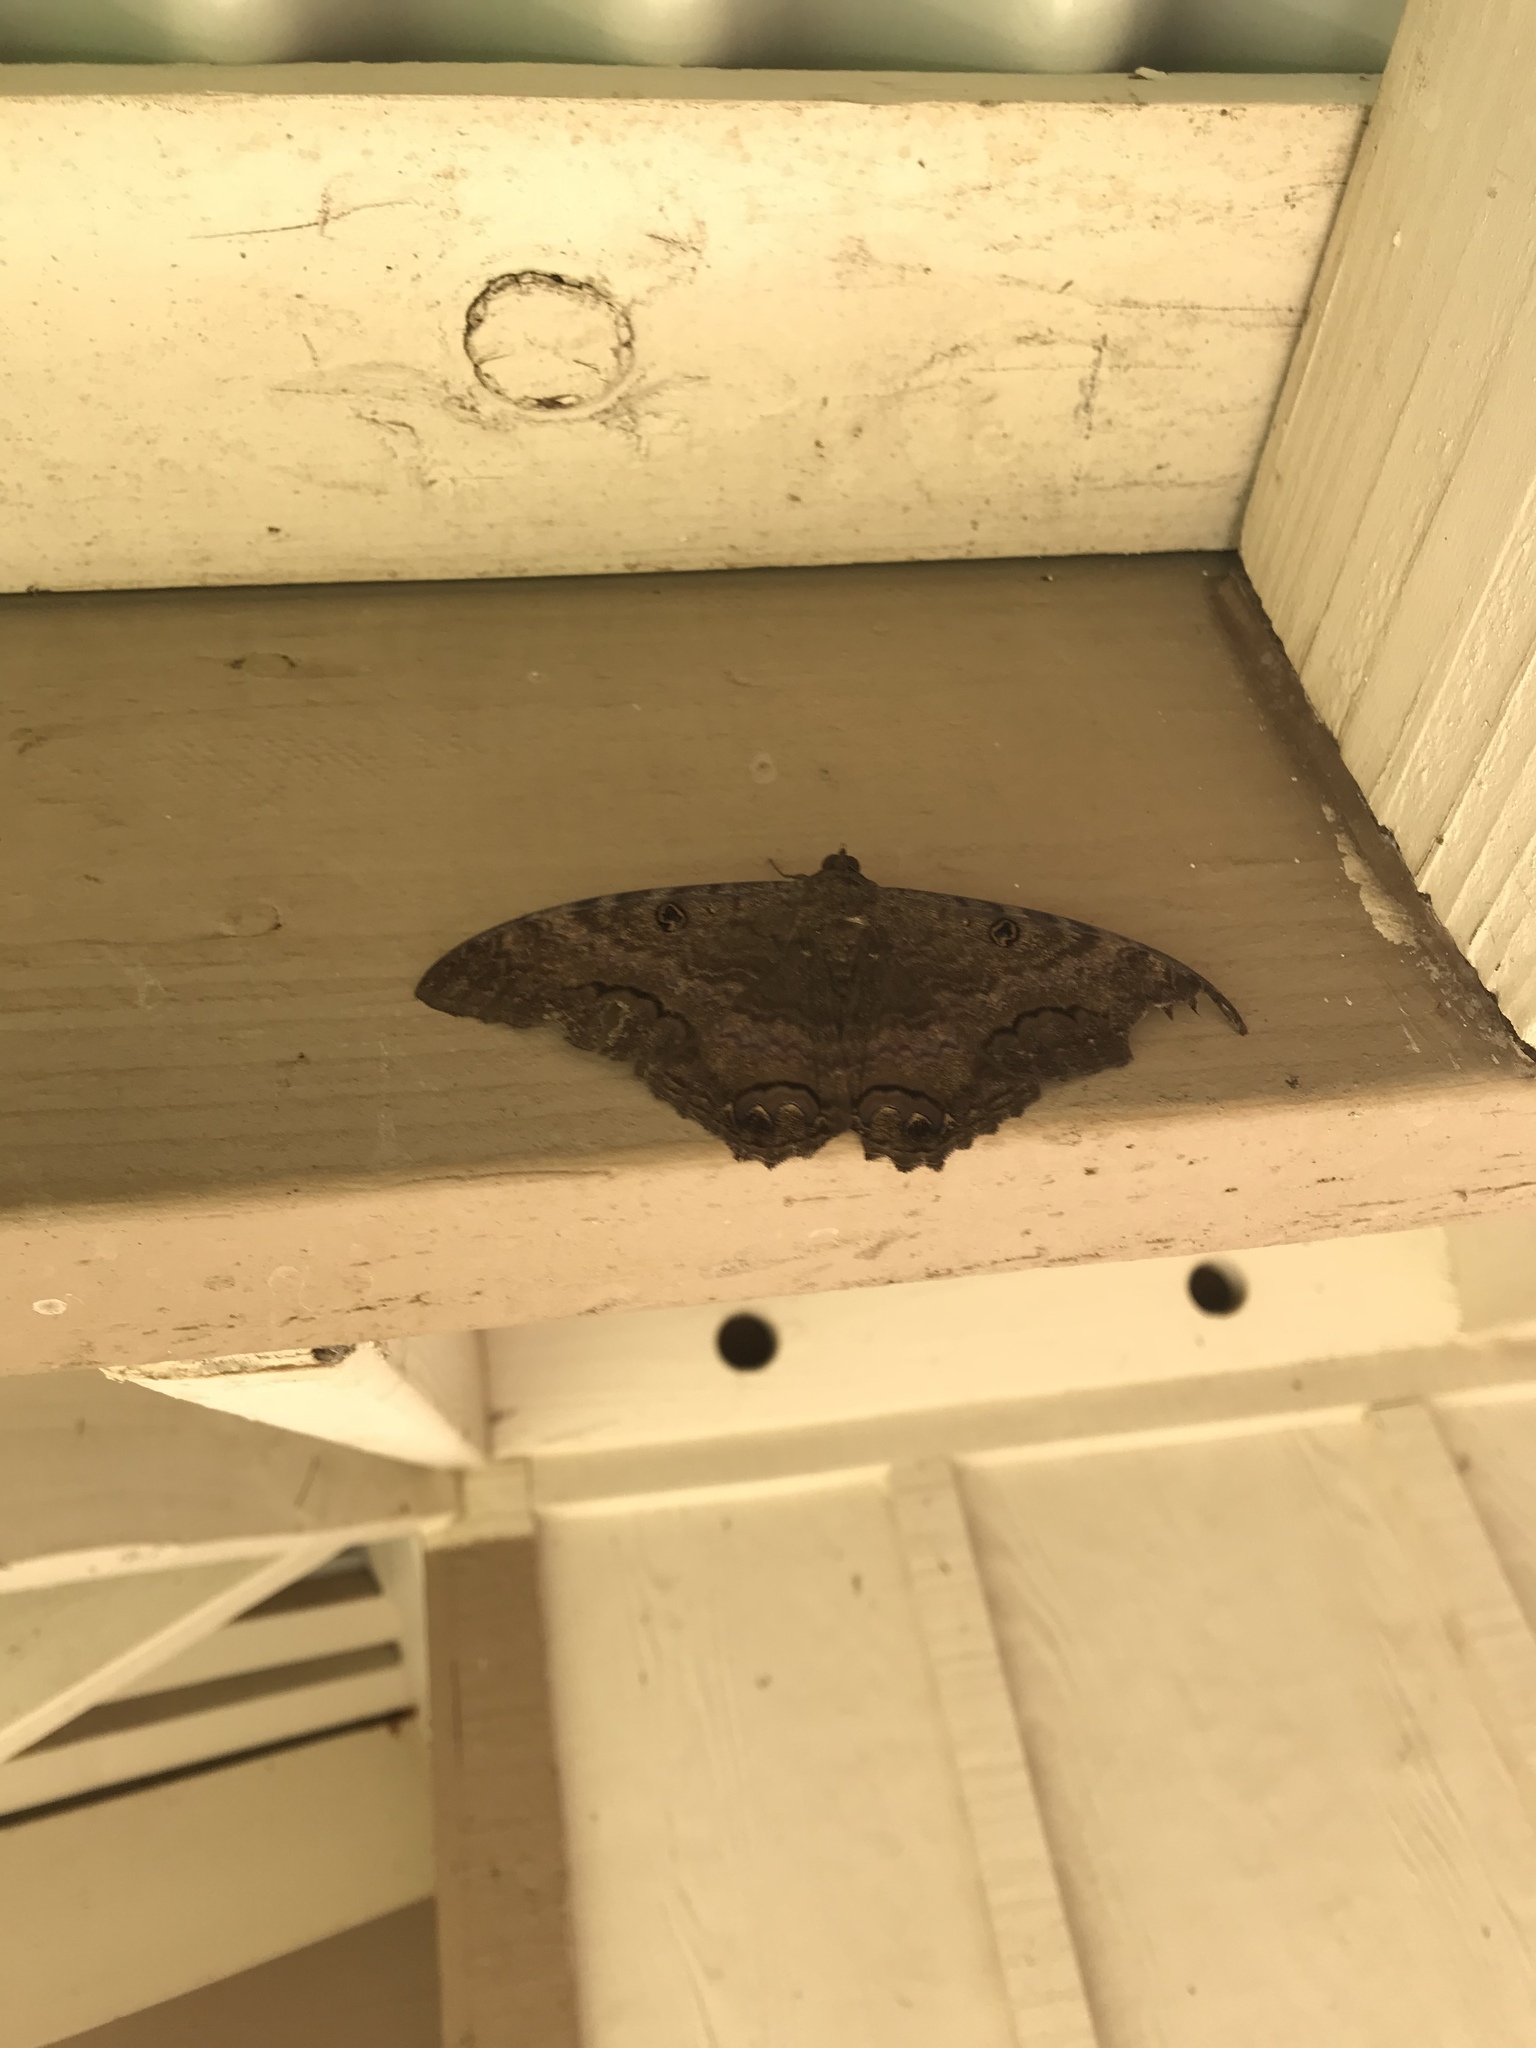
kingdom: Animalia
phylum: Arthropoda
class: Insecta
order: Lepidoptera
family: Erebidae
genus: Ascalapha
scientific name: Ascalapha odorata
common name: Black witch
